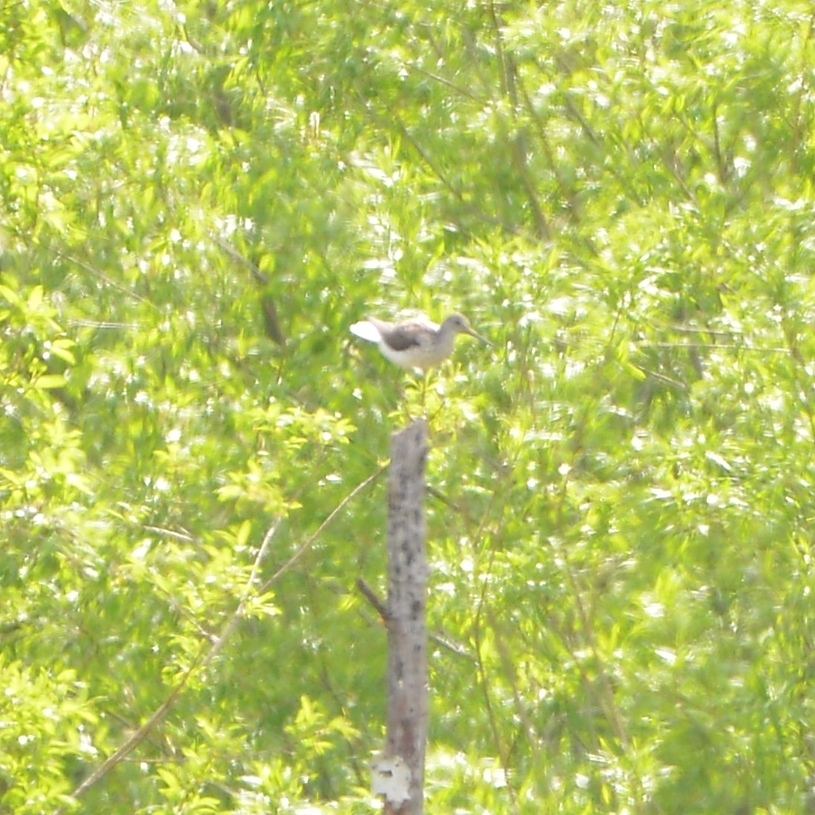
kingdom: Animalia
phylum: Chordata
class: Aves
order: Charadriiformes
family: Scolopacidae
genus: Tringa
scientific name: Tringa nebularia
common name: Common greenshank
